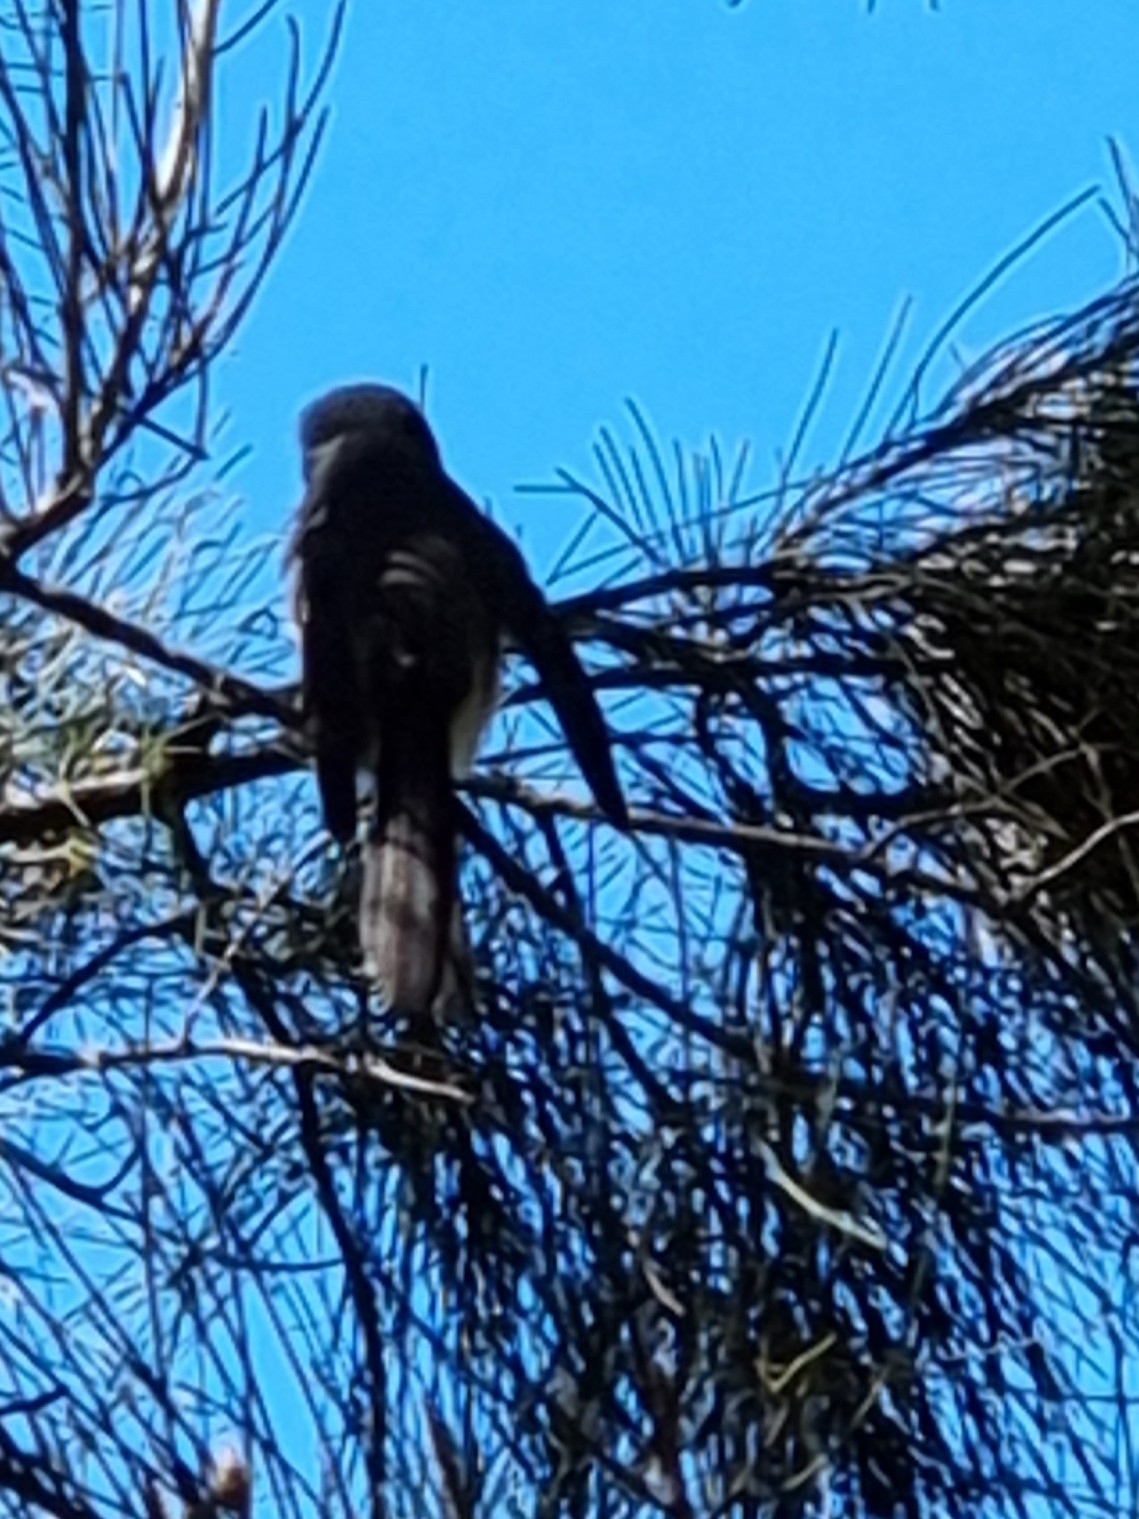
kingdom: Animalia
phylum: Chordata
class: Aves
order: Passeriformes
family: Rhipiduridae
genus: Rhipidura
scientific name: Rhipidura albiscapa
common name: Grey fantail
